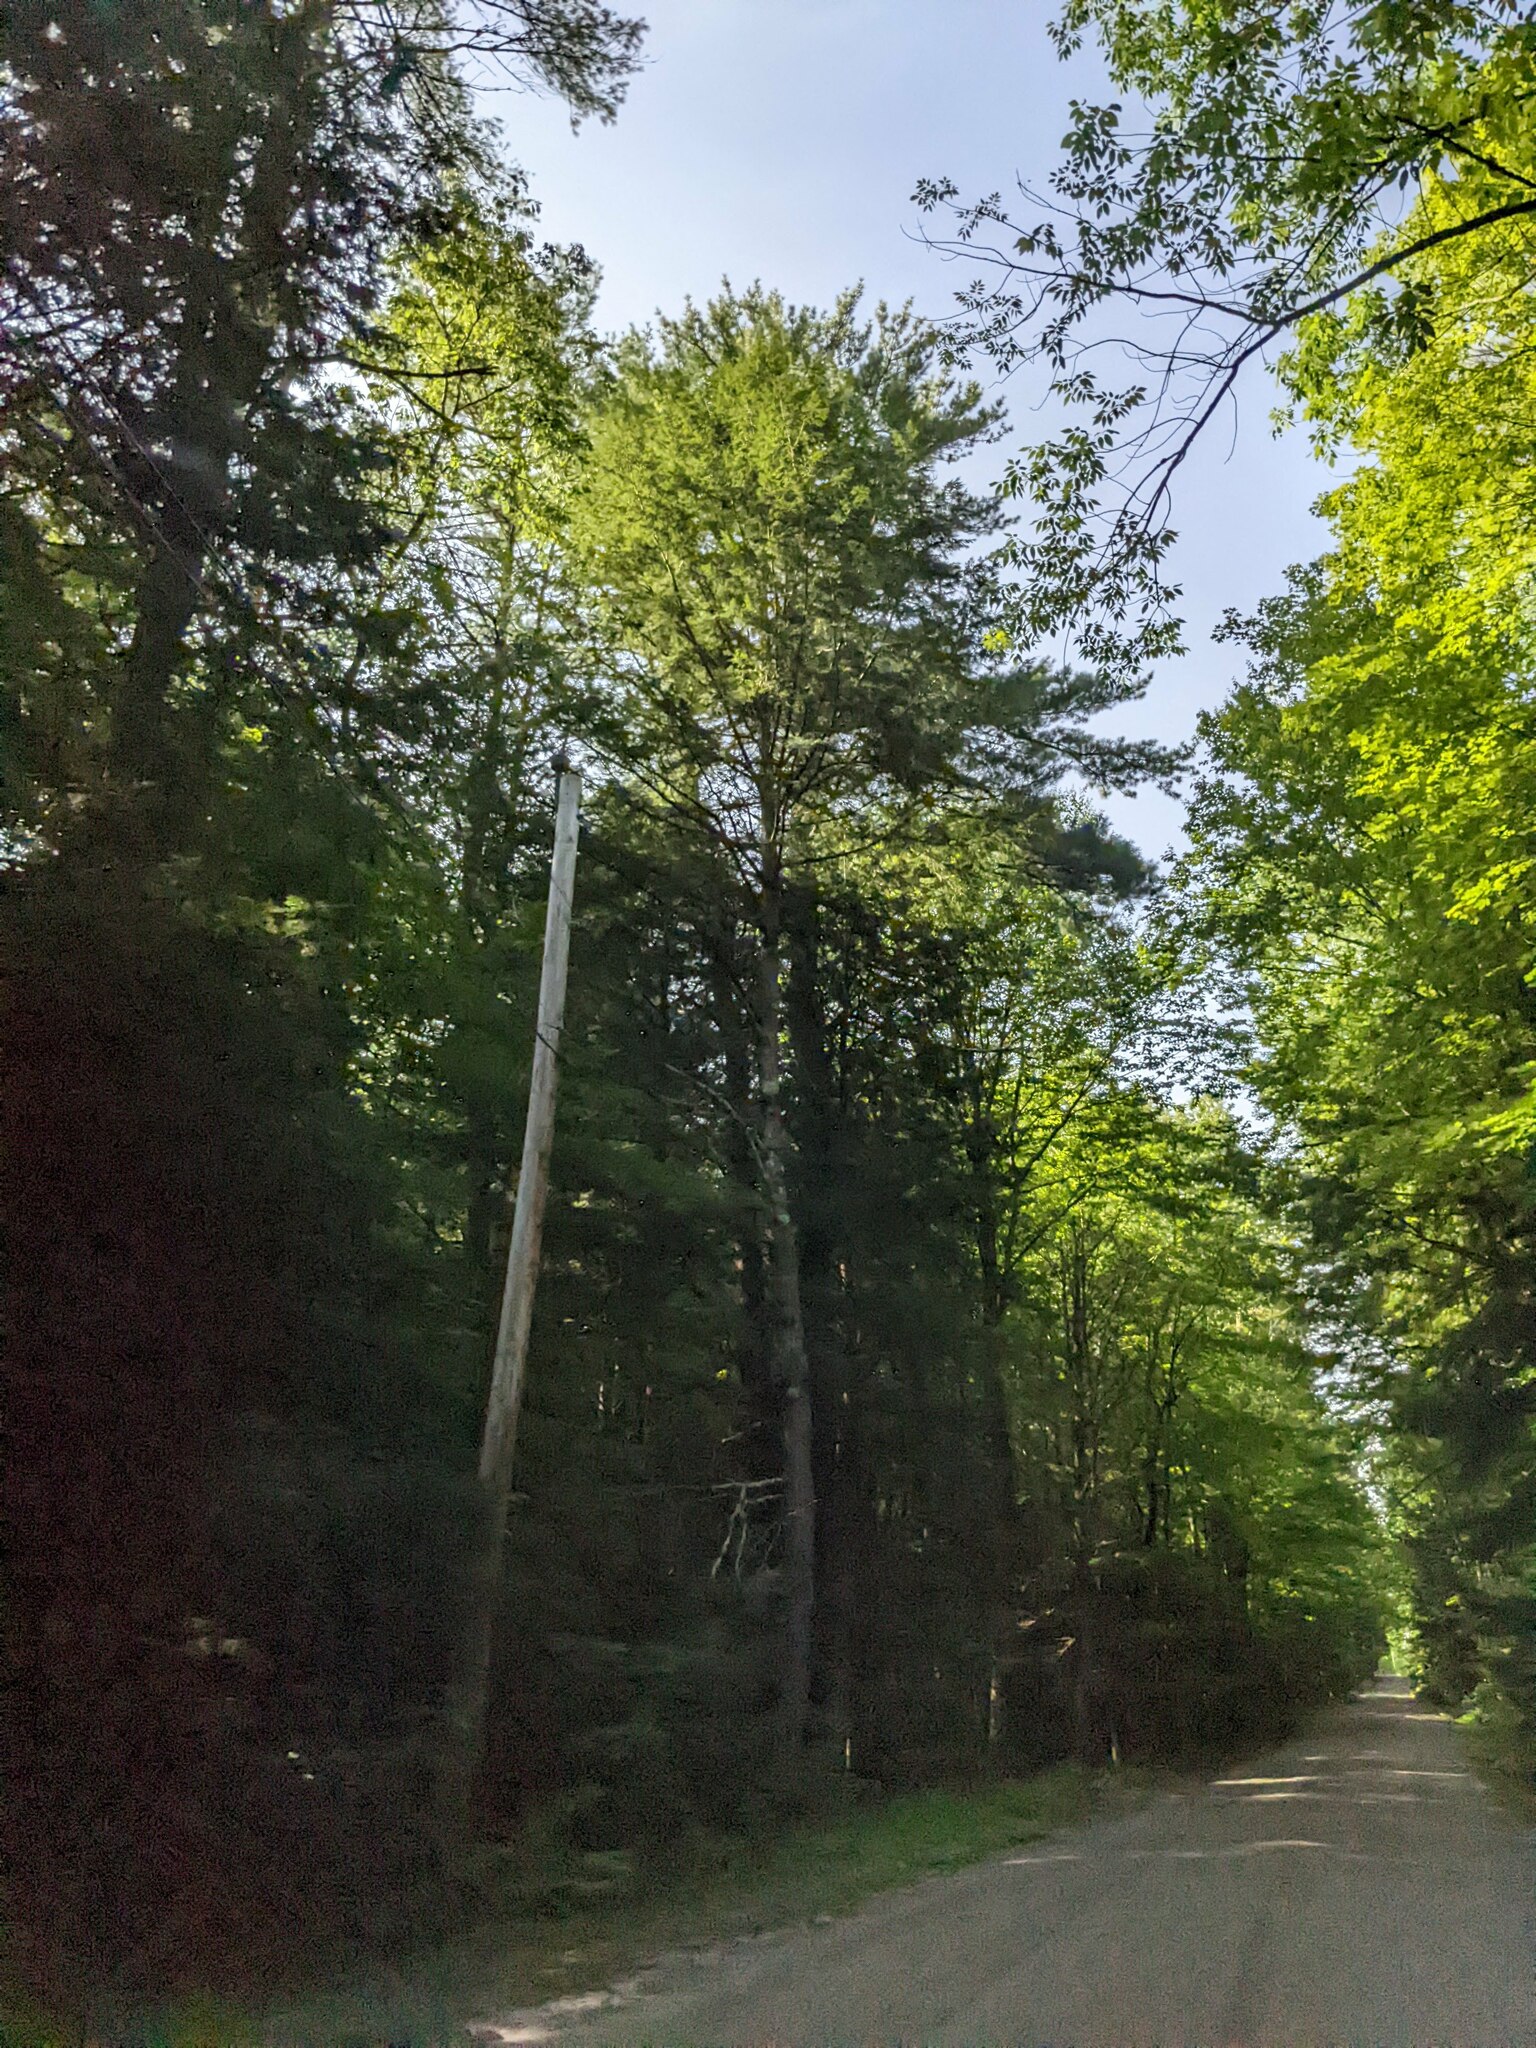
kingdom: Plantae
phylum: Tracheophyta
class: Pinopsida
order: Pinales
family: Pinaceae
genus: Pinus
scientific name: Pinus strobus
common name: Weymouth pine
